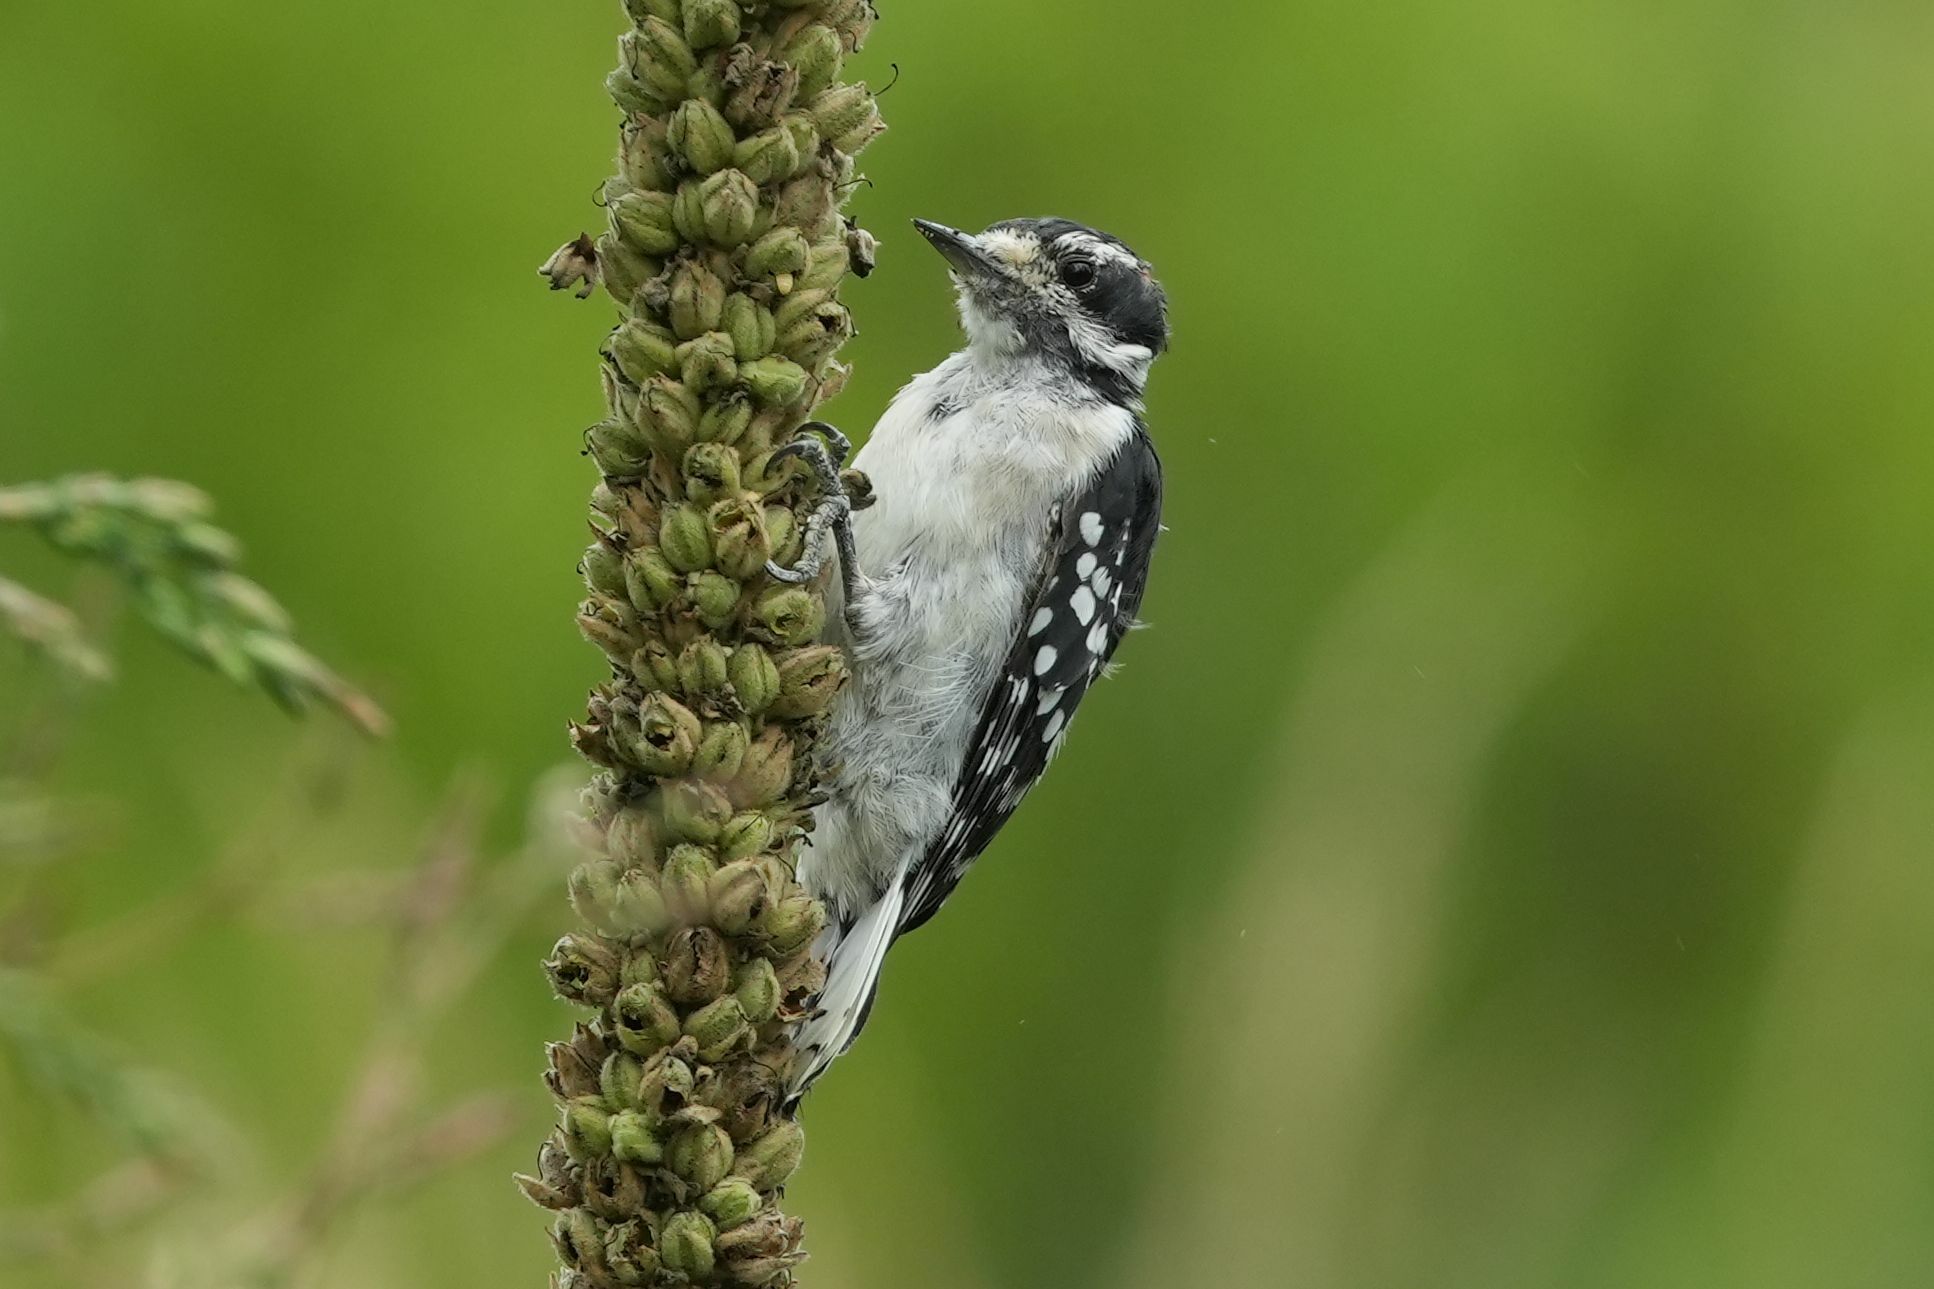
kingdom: Animalia
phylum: Chordata
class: Aves
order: Piciformes
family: Picidae
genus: Dryobates
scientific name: Dryobates pubescens
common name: Downy woodpecker
